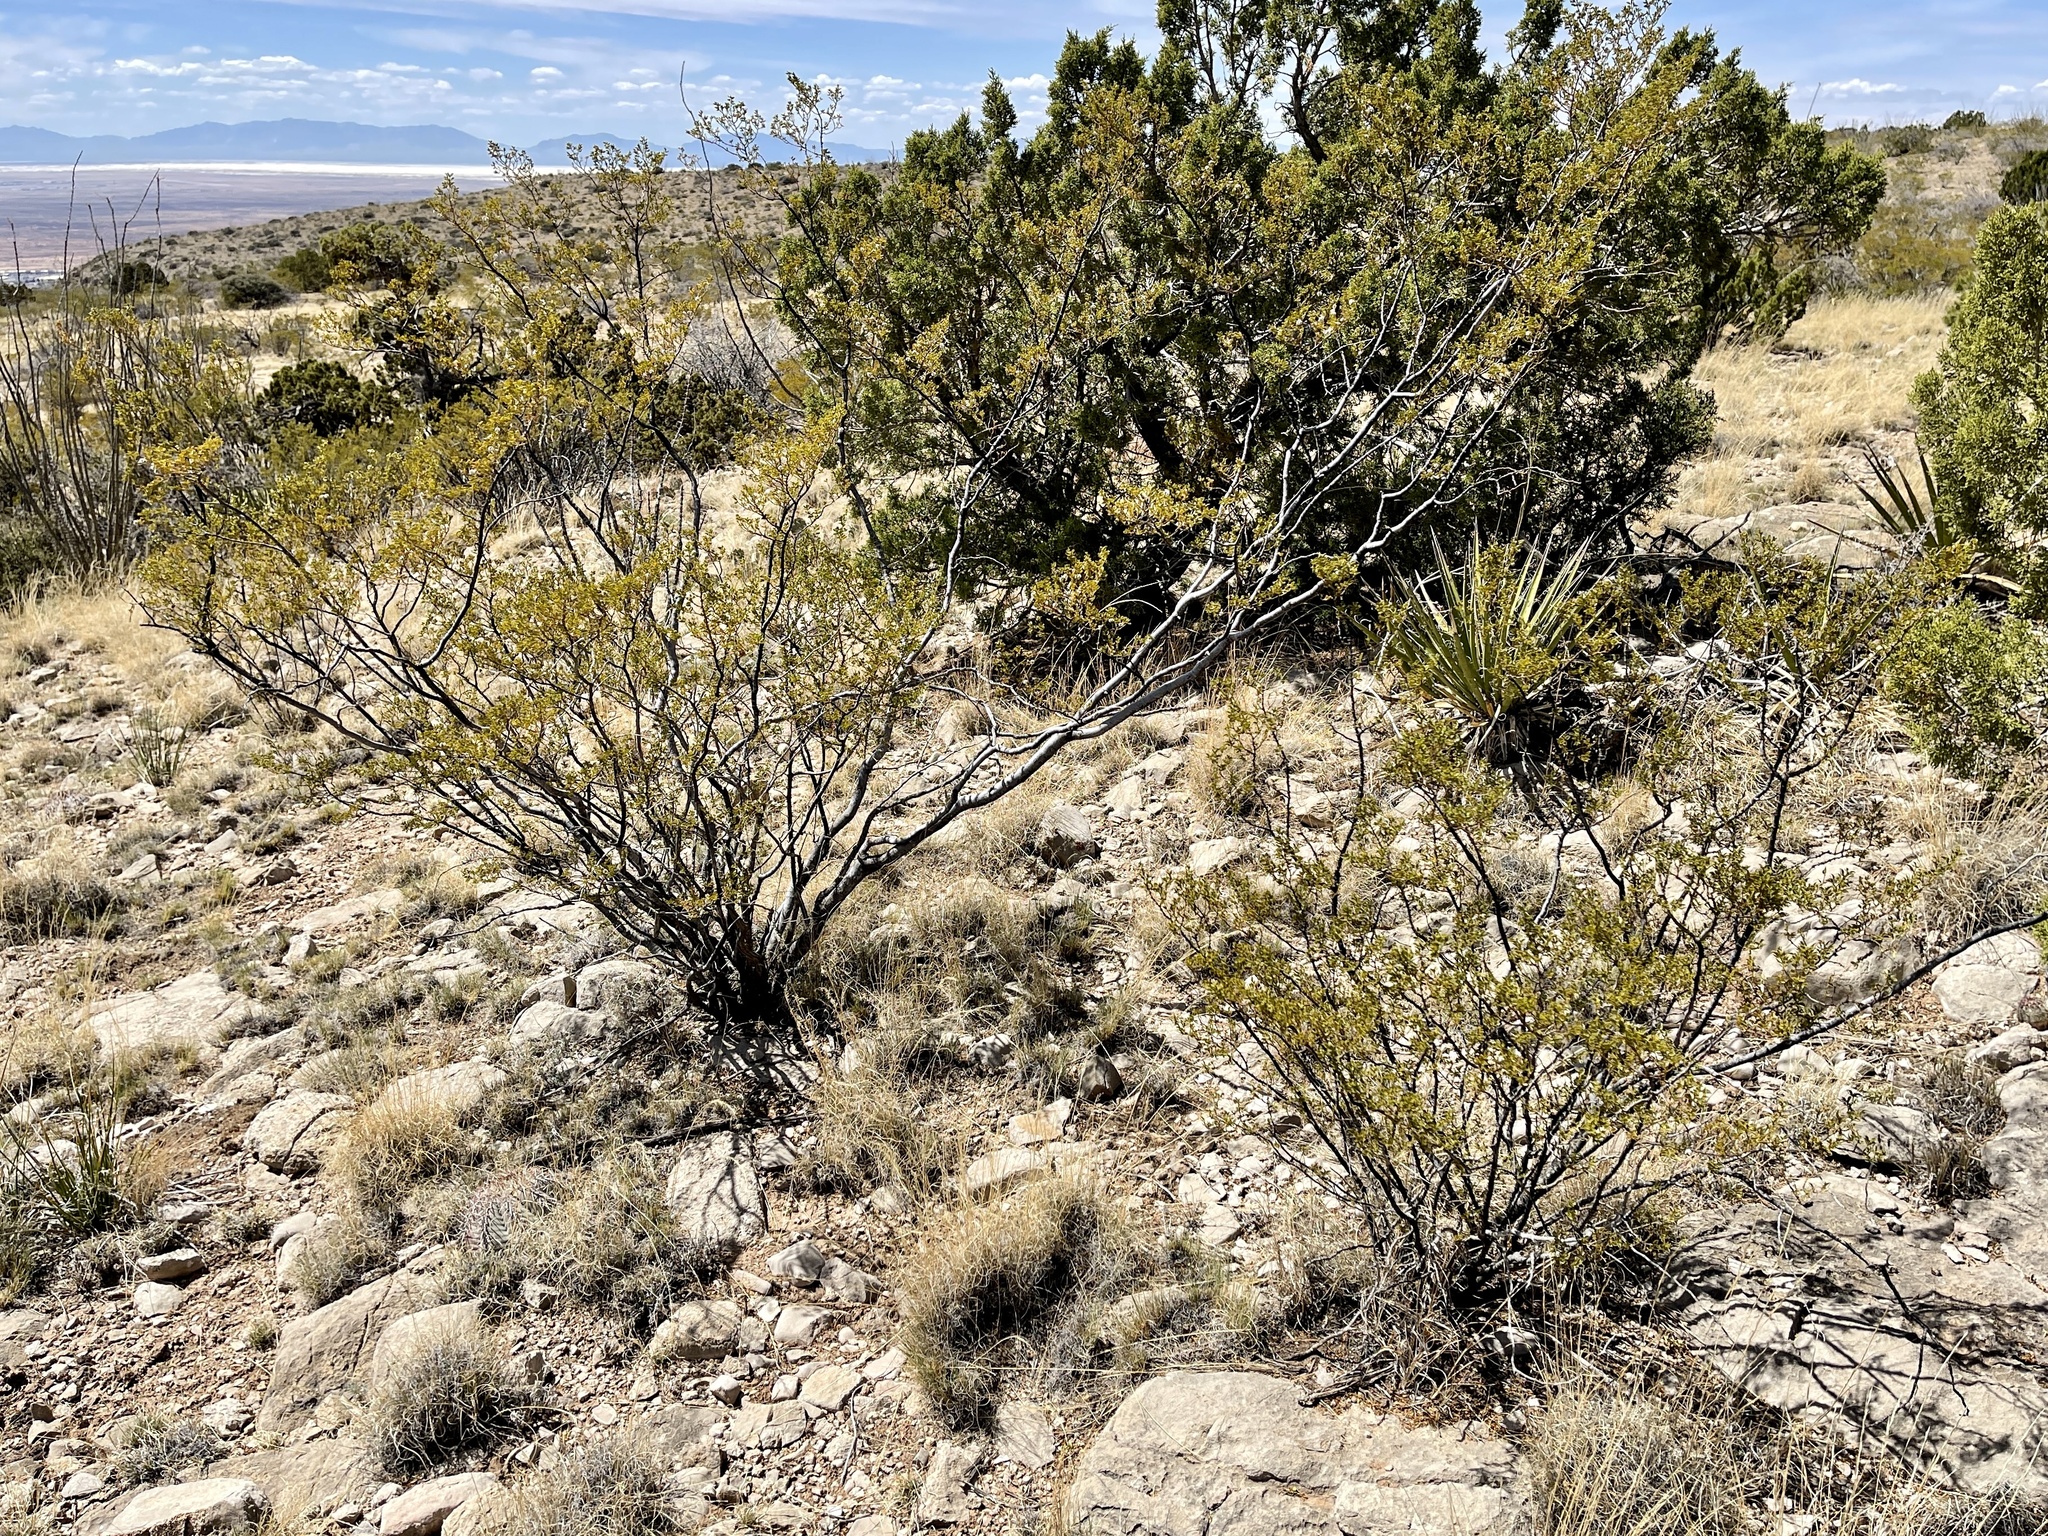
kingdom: Plantae
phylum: Tracheophyta
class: Magnoliopsida
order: Zygophyllales
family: Zygophyllaceae
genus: Larrea
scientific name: Larrea tridentata
